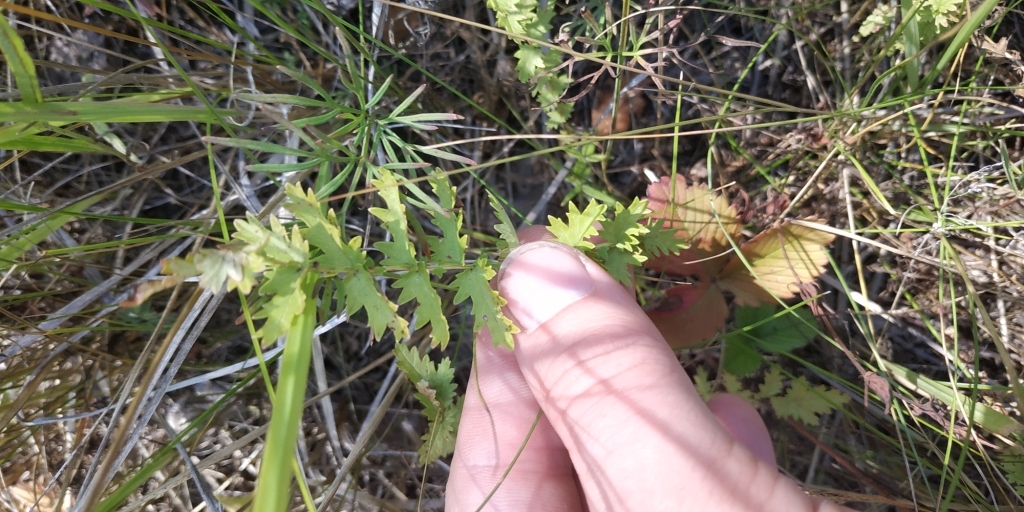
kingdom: Plantae
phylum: Tracheophyta
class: Magnoliopsida
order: Rosales
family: Rosaceae
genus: Filipendula
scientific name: Filipendula vulgaris
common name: Dropwort
